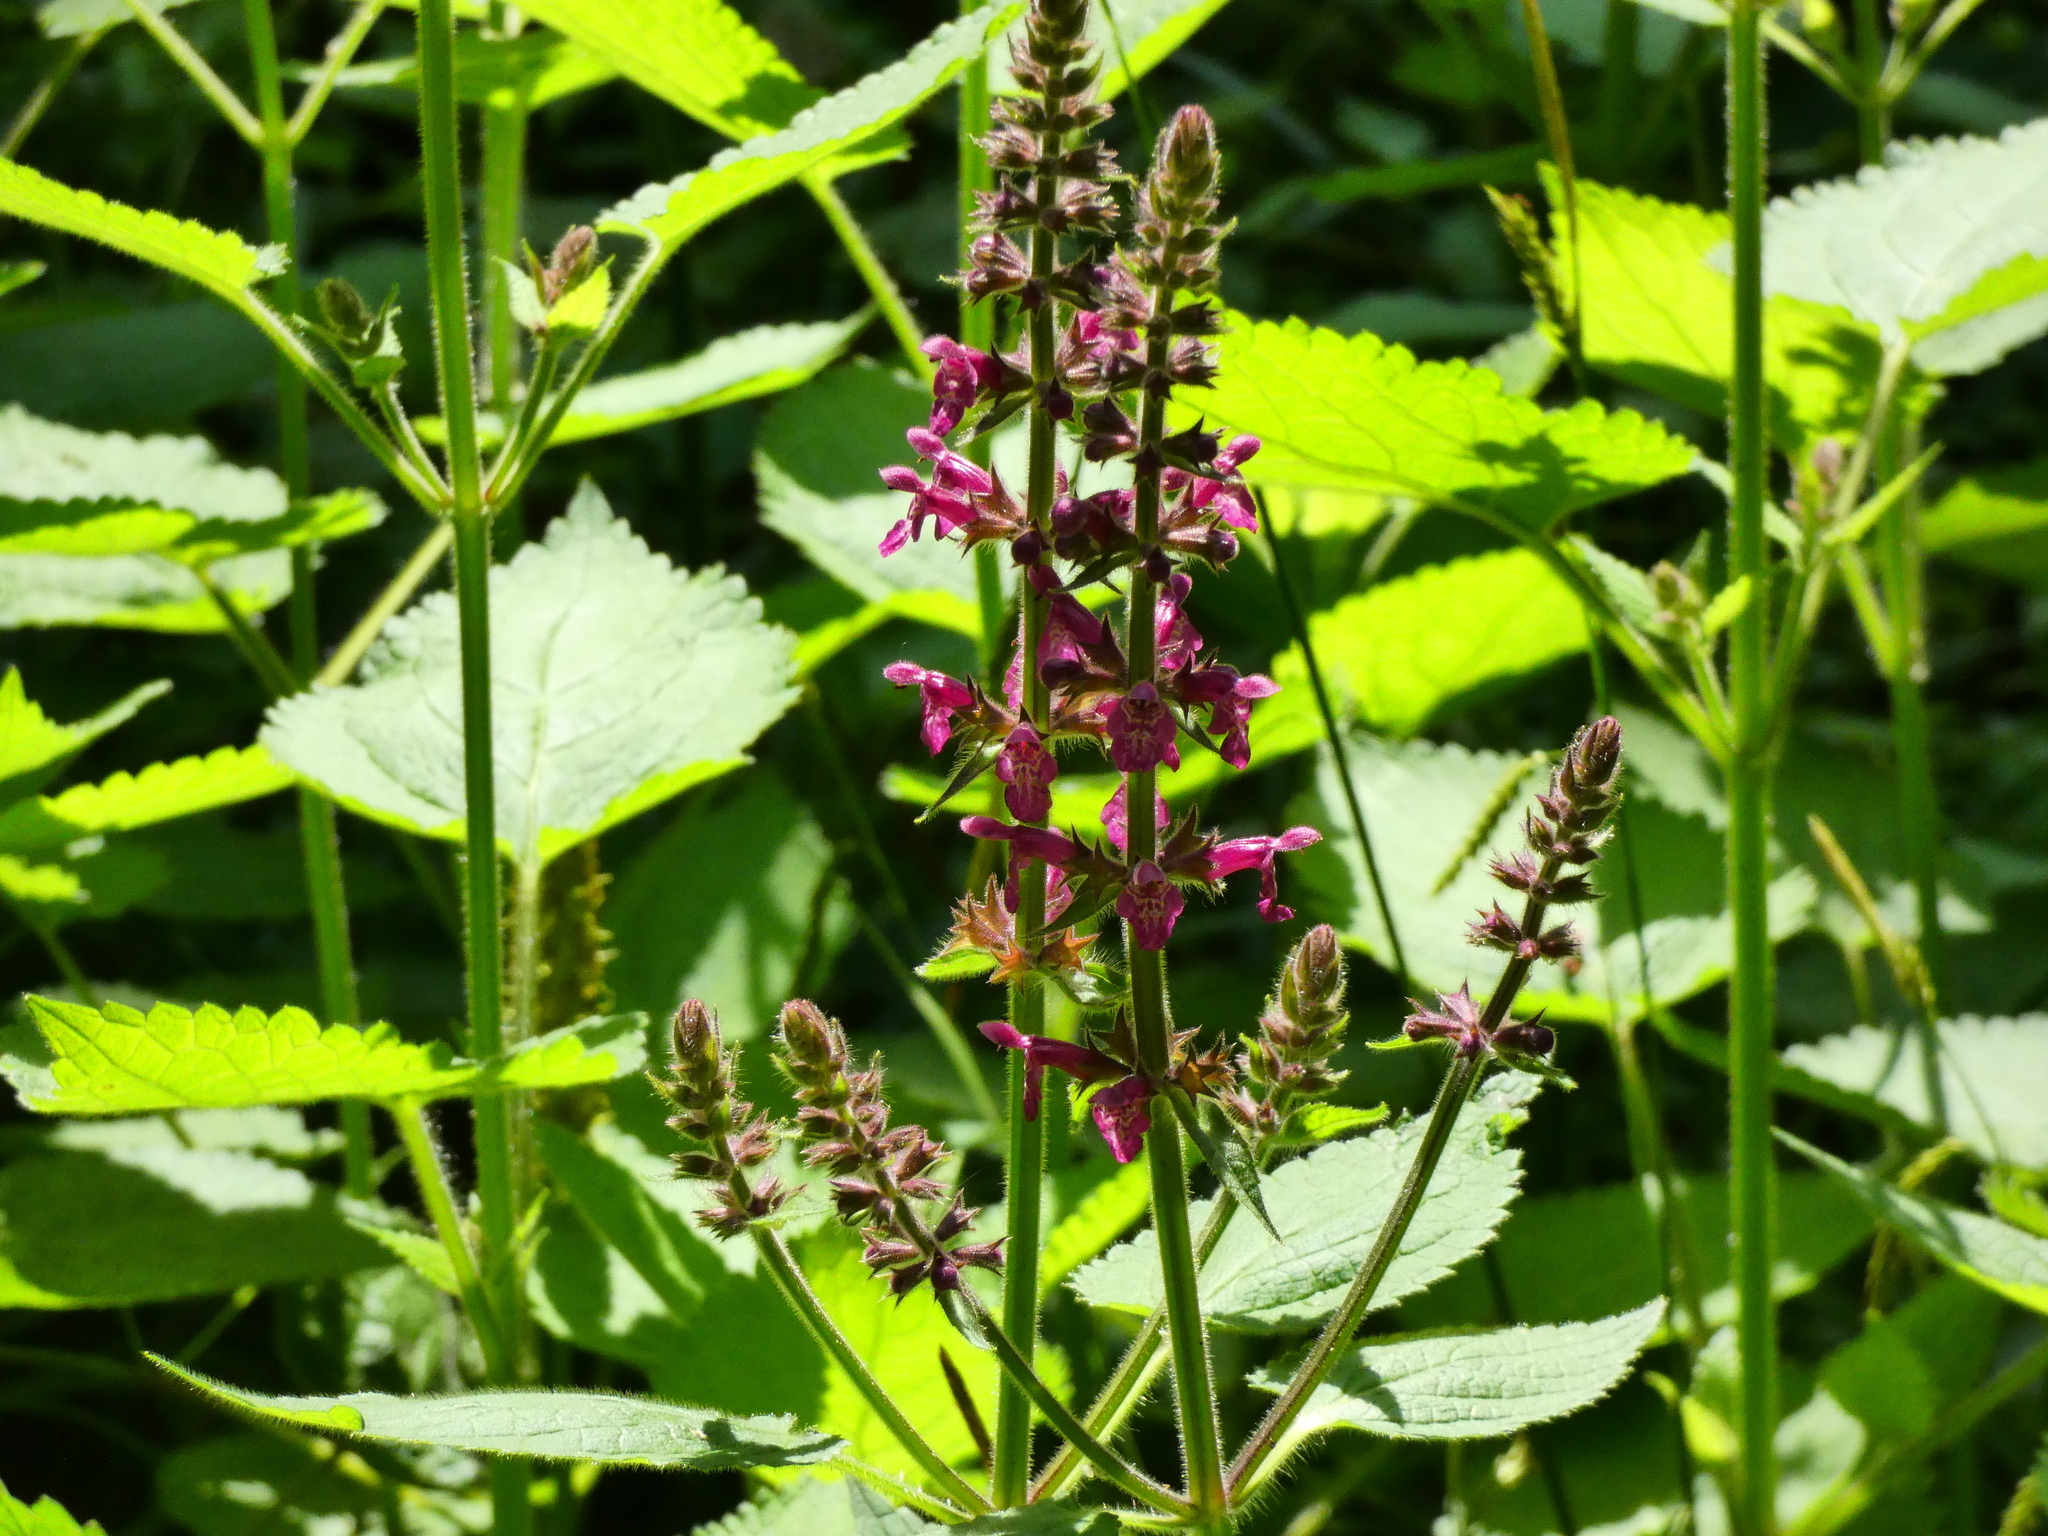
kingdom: Plantae
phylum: Tracheophyta
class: Magnoliopsida
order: Lamiales
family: Lamiaceae
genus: Stachys
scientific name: Stachys sylvatica
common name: Hedge woundwort
